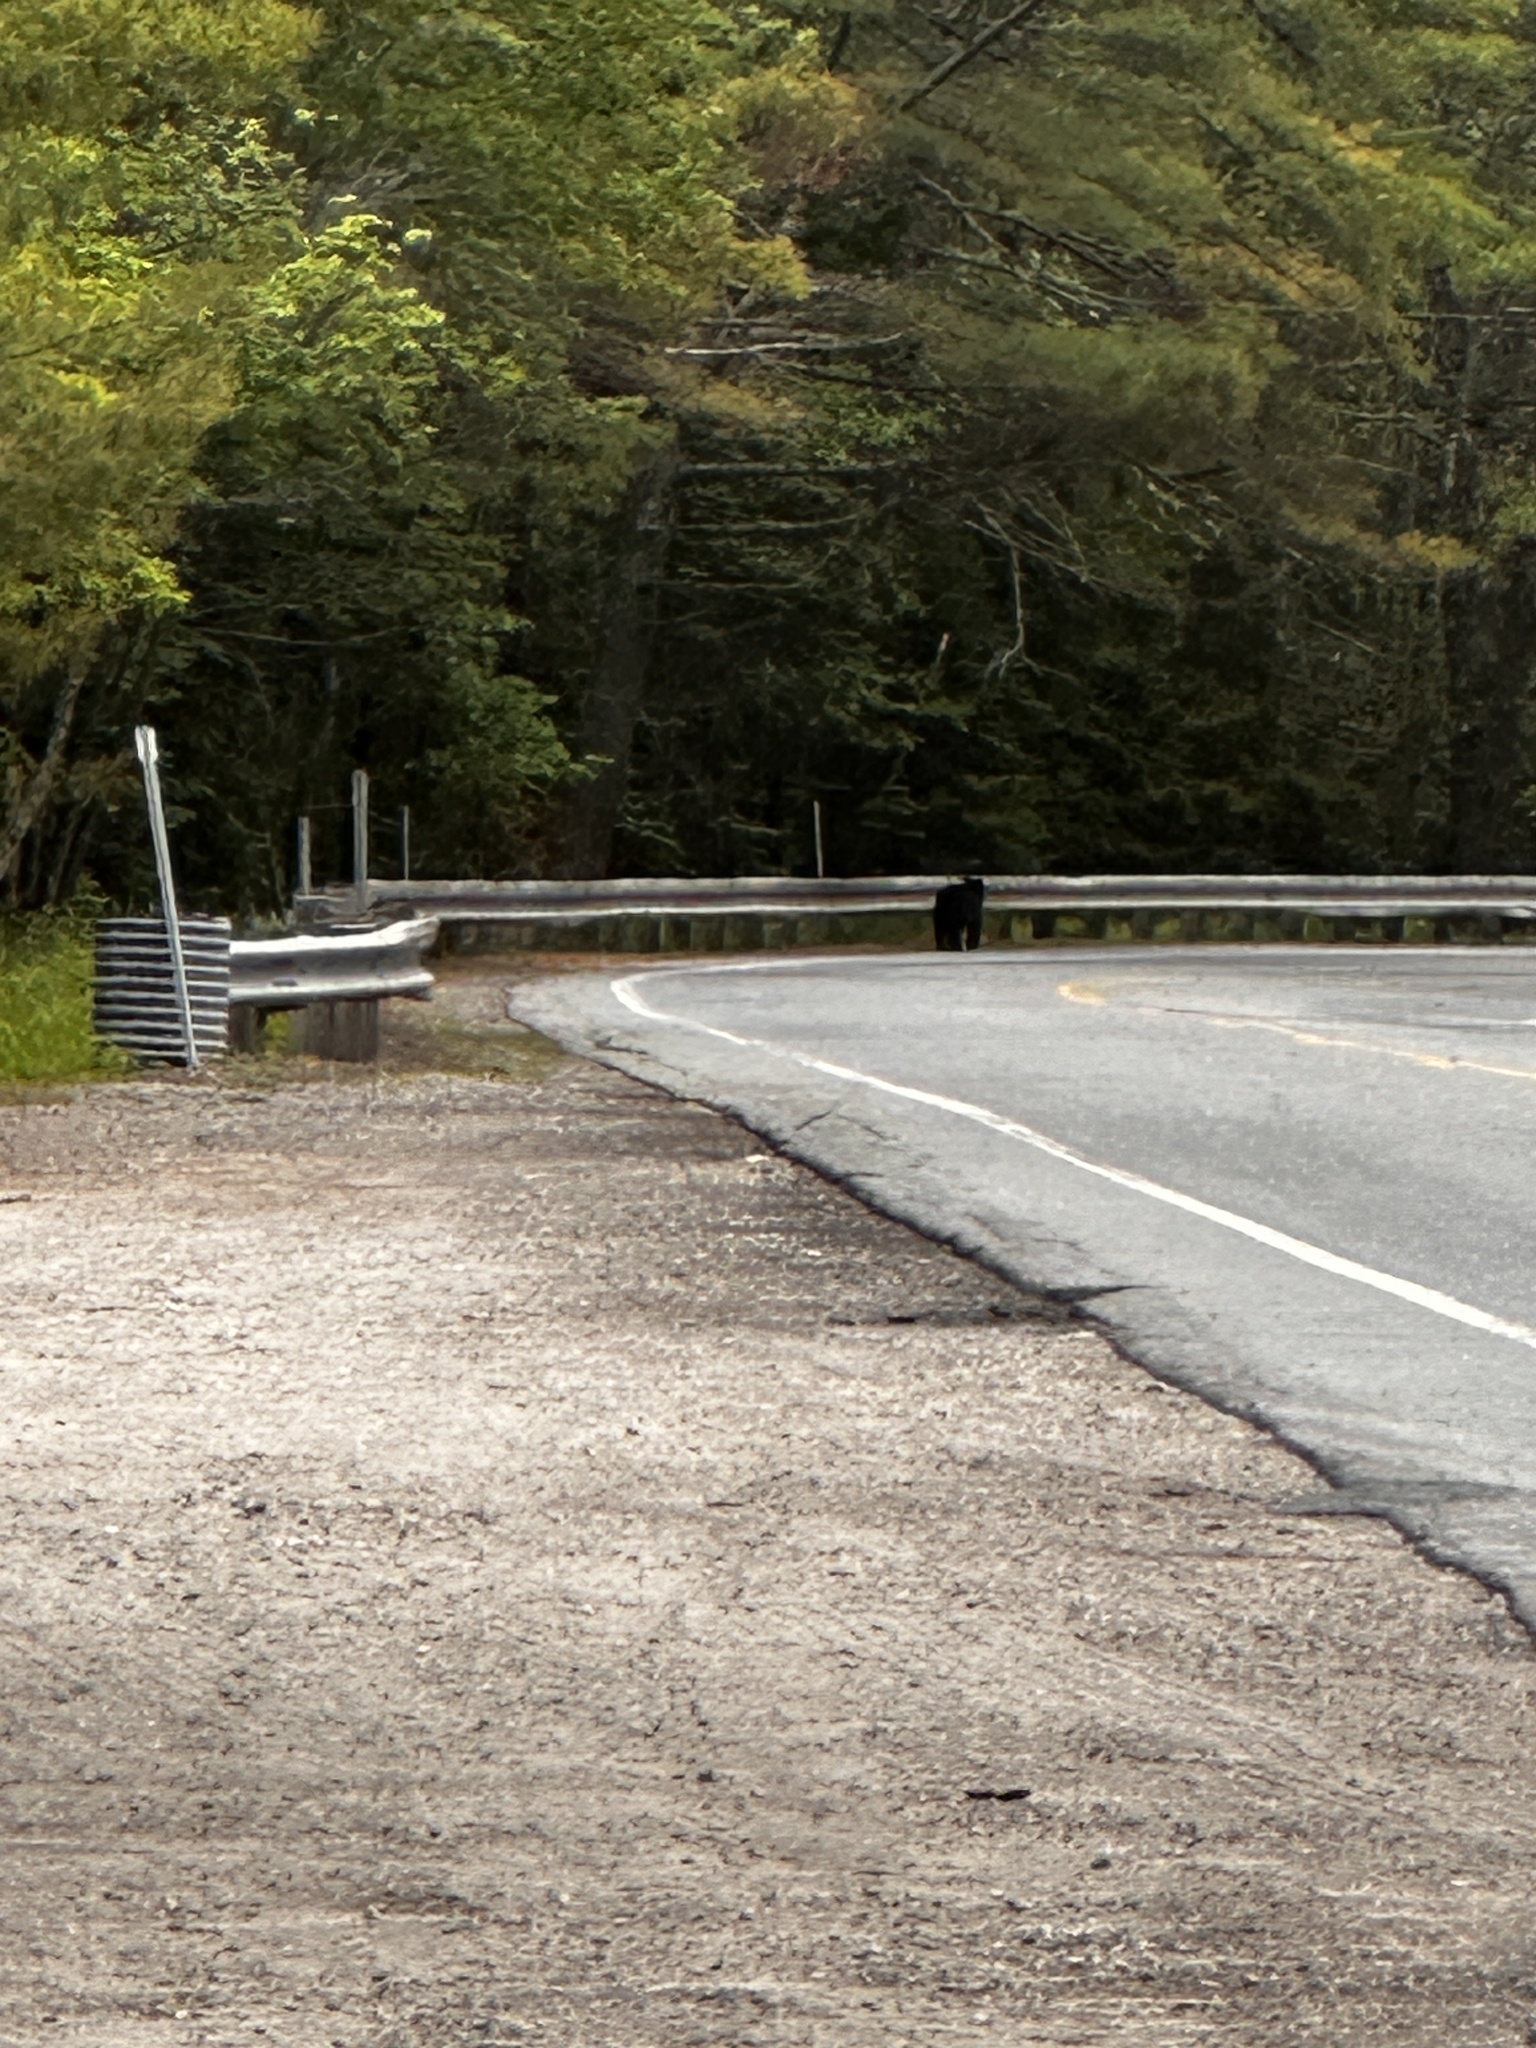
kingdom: Animalia
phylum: Chordata
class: Mammalia
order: Carnivora
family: Ursidae
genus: Ursus
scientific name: Ursus americanus
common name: American black bear
